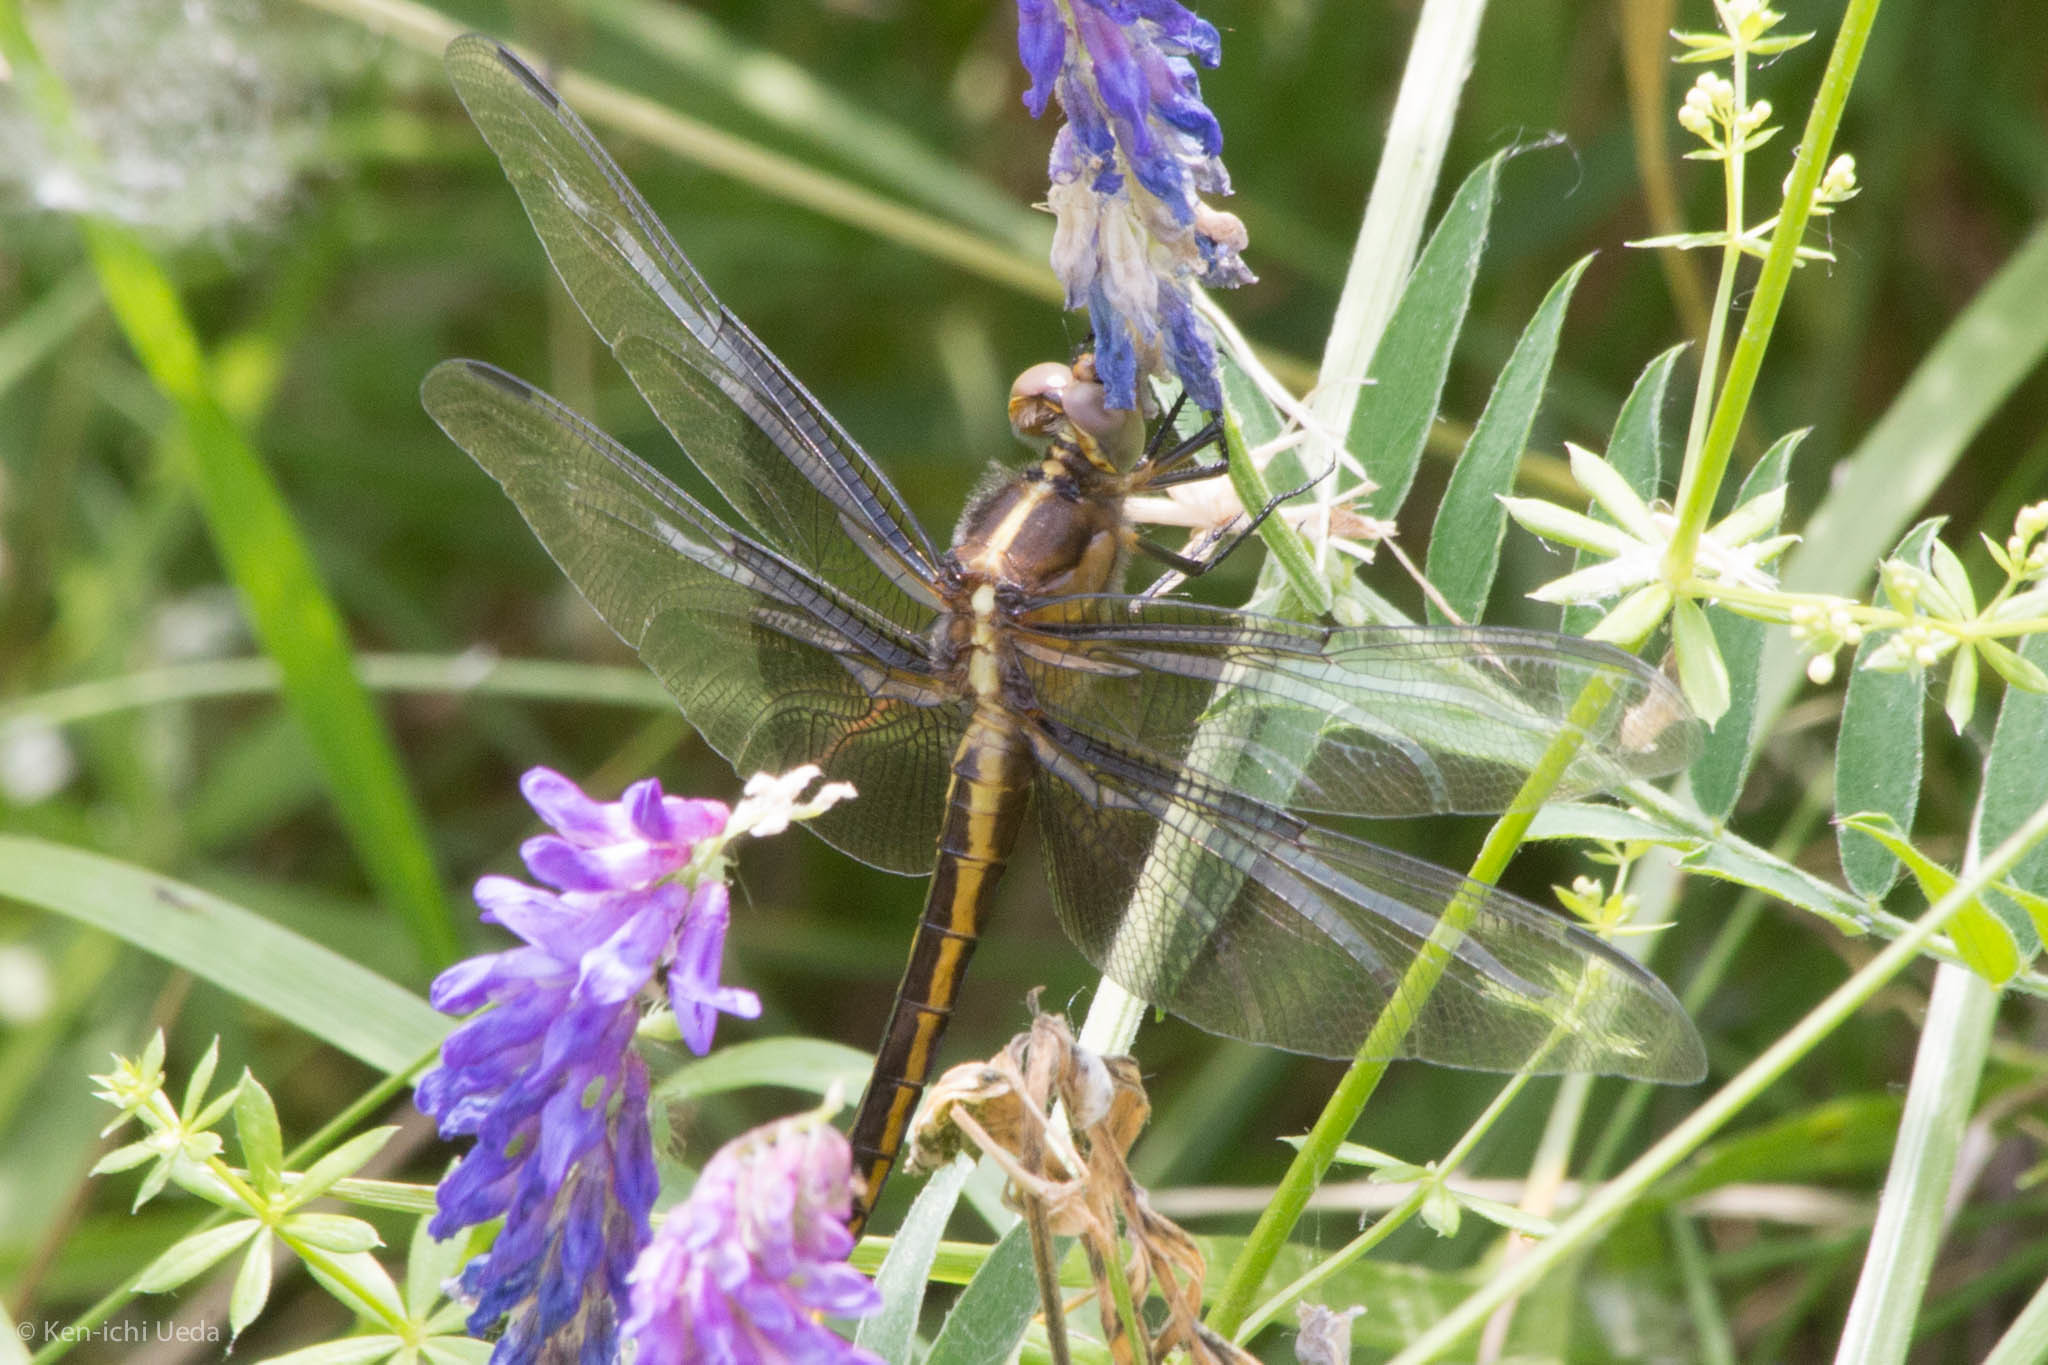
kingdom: Animalia
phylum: Arthropoda
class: Insecta
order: Odonata
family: Libellulidae
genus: Libellula
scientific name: Libellula luctuosa
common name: Widow skimmer
